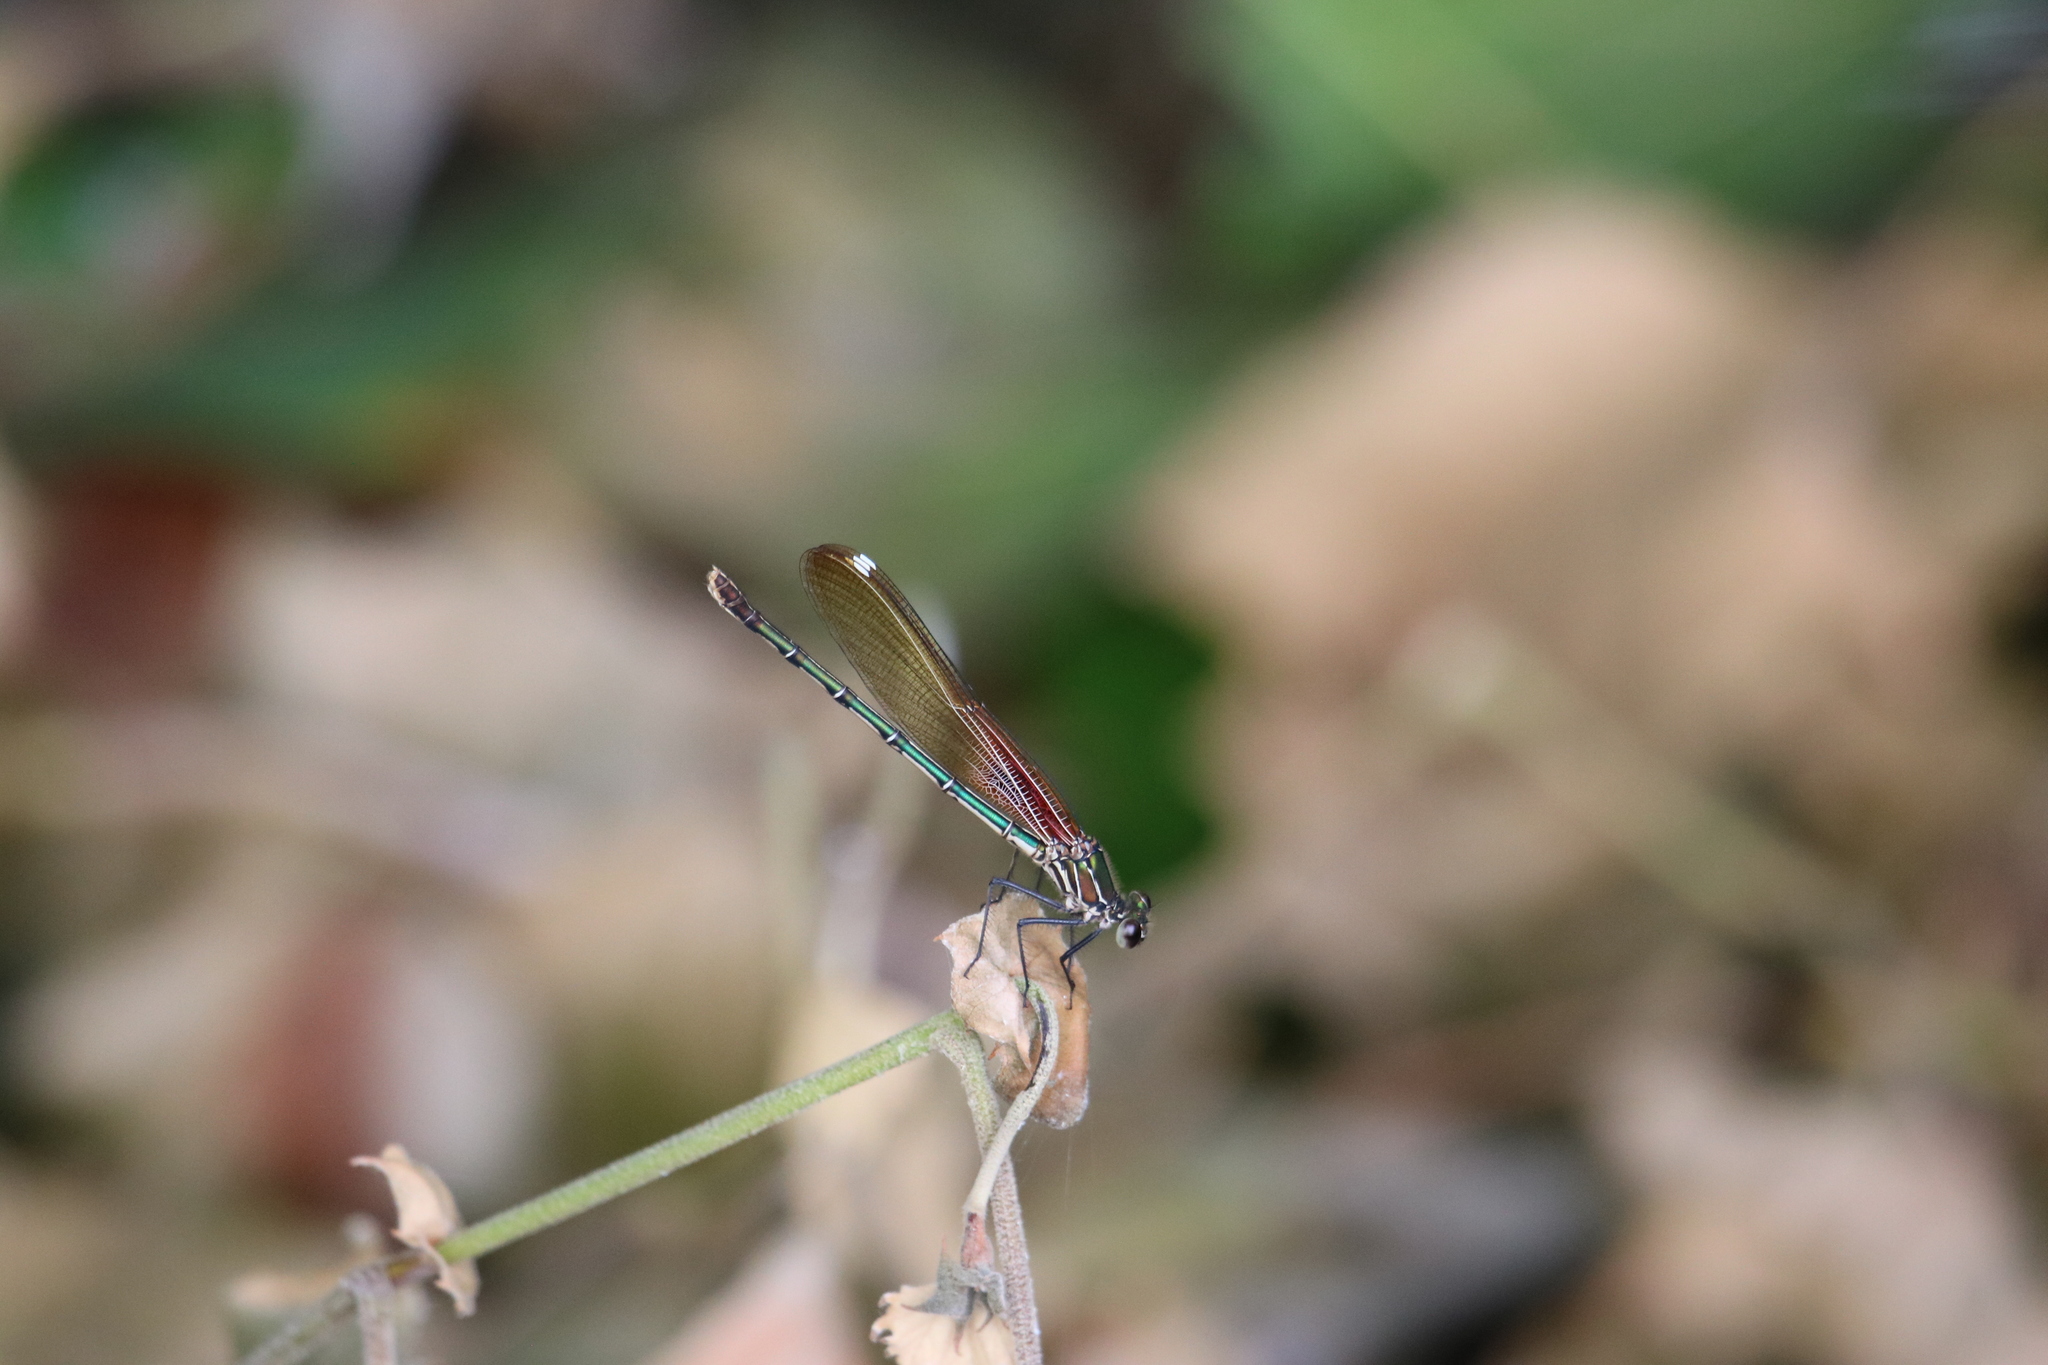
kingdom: Animalia
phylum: Arthropoda
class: Insecta
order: Odonata
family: Calopterygidae
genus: Hetaerina
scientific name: Hetaerina americana
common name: American rubyspot
